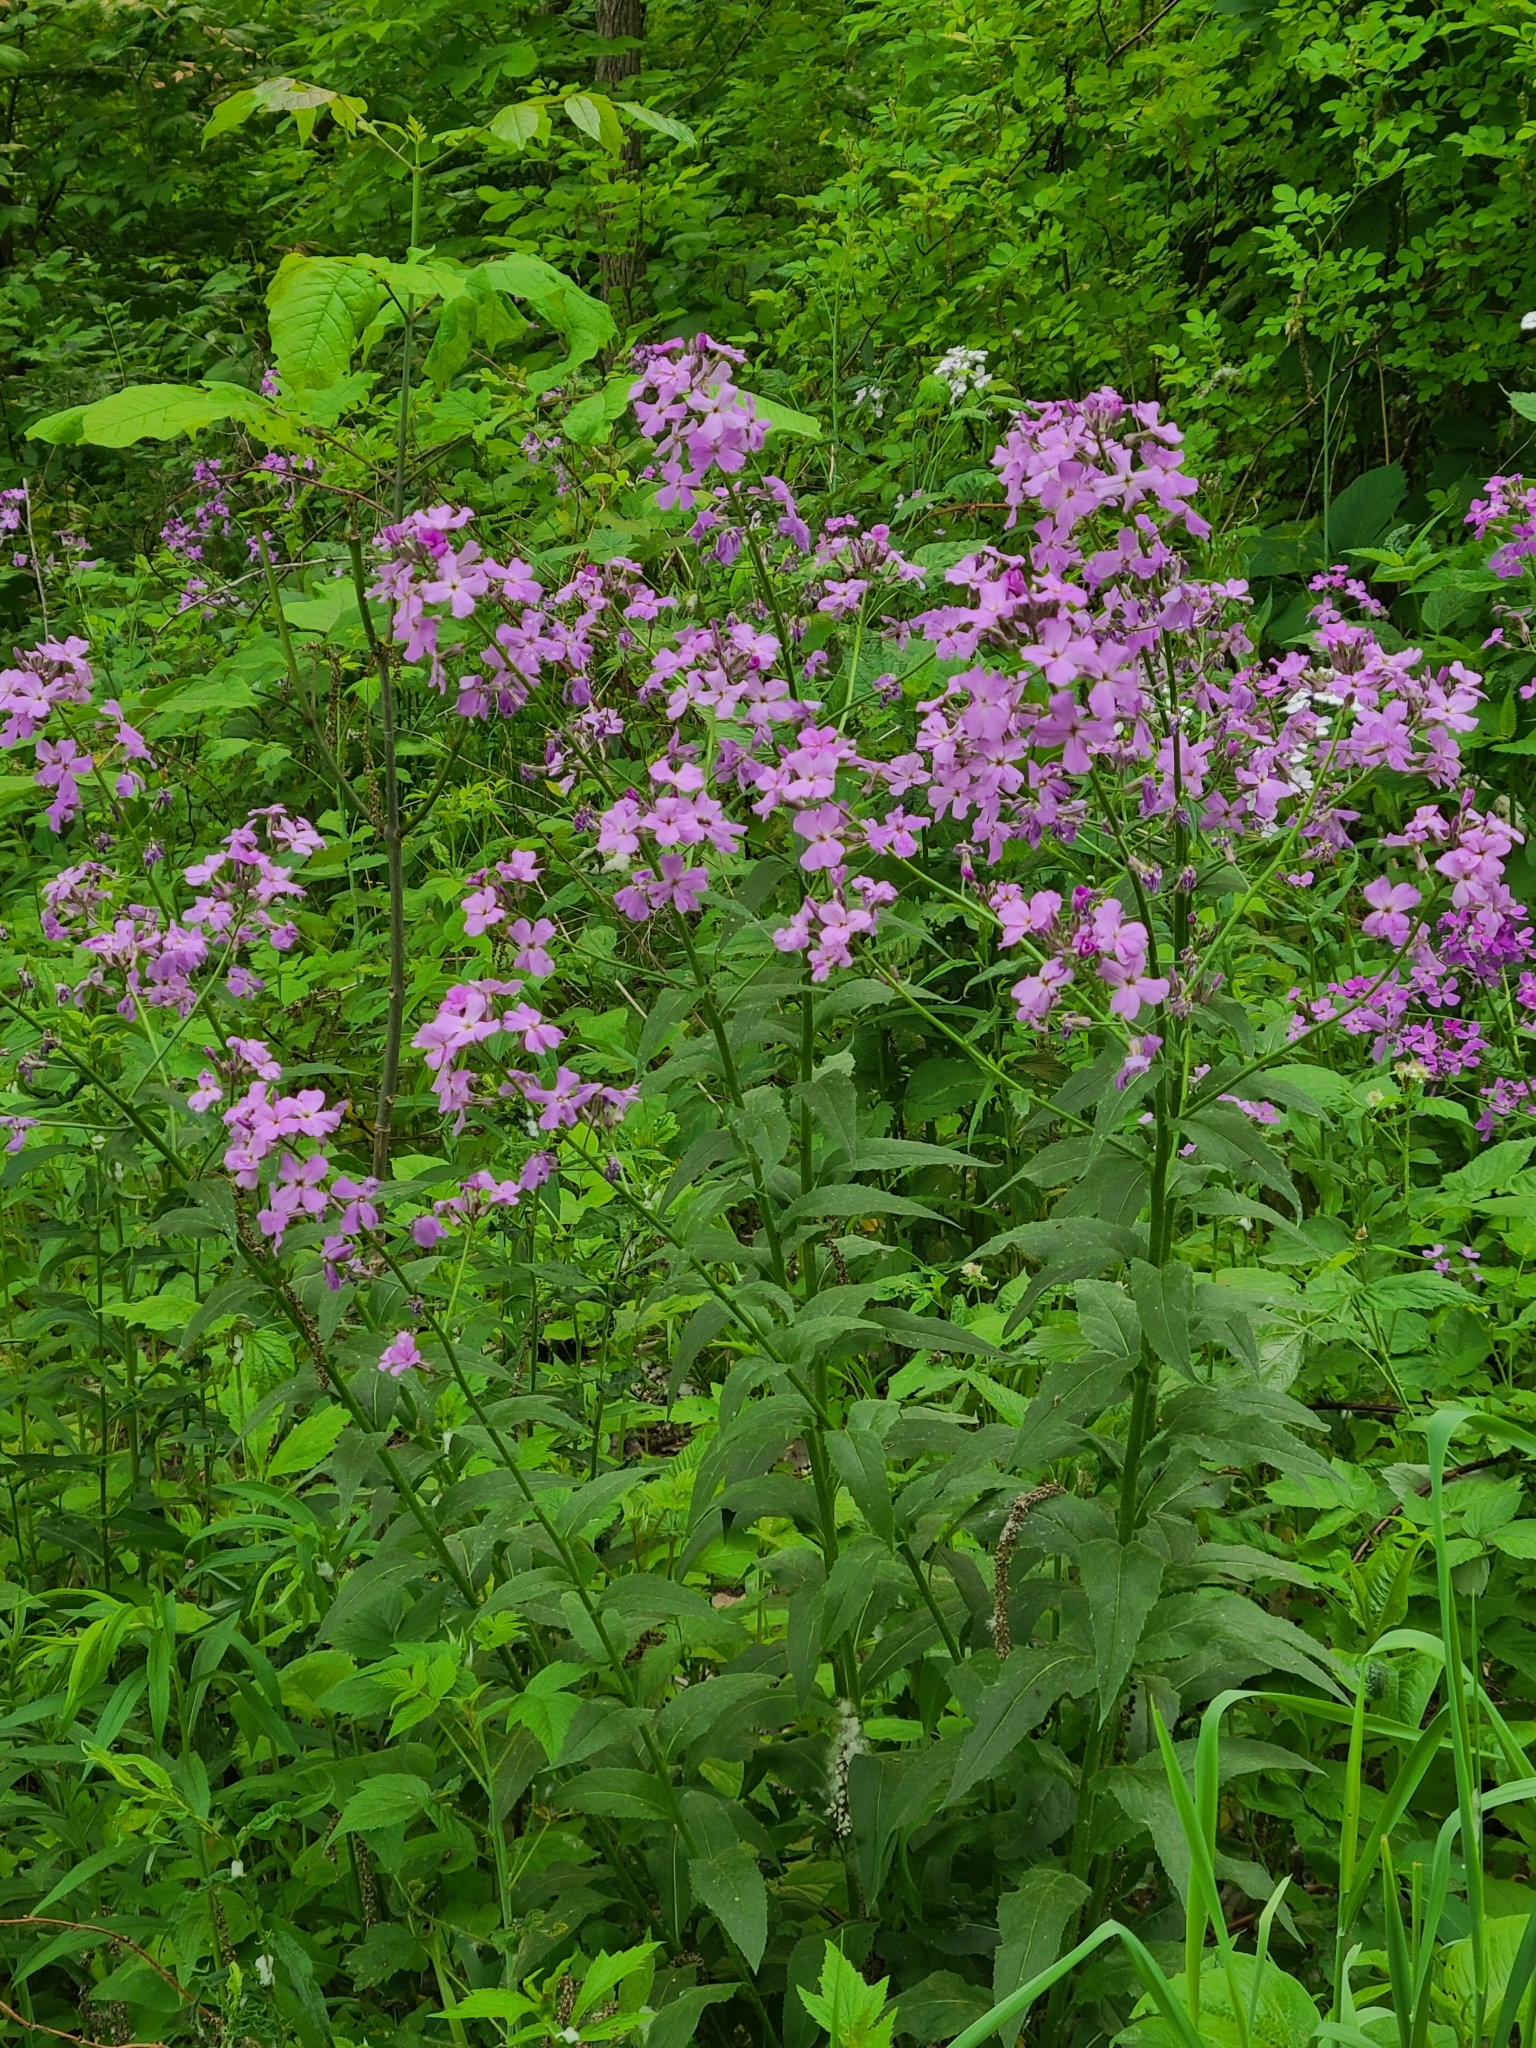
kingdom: Plantae
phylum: Tracheophyta
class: Magnoliopsida
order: Brassicales
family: Brassicaceae
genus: Hesperis
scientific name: Hesperis matronalis
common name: Dame's-violet
